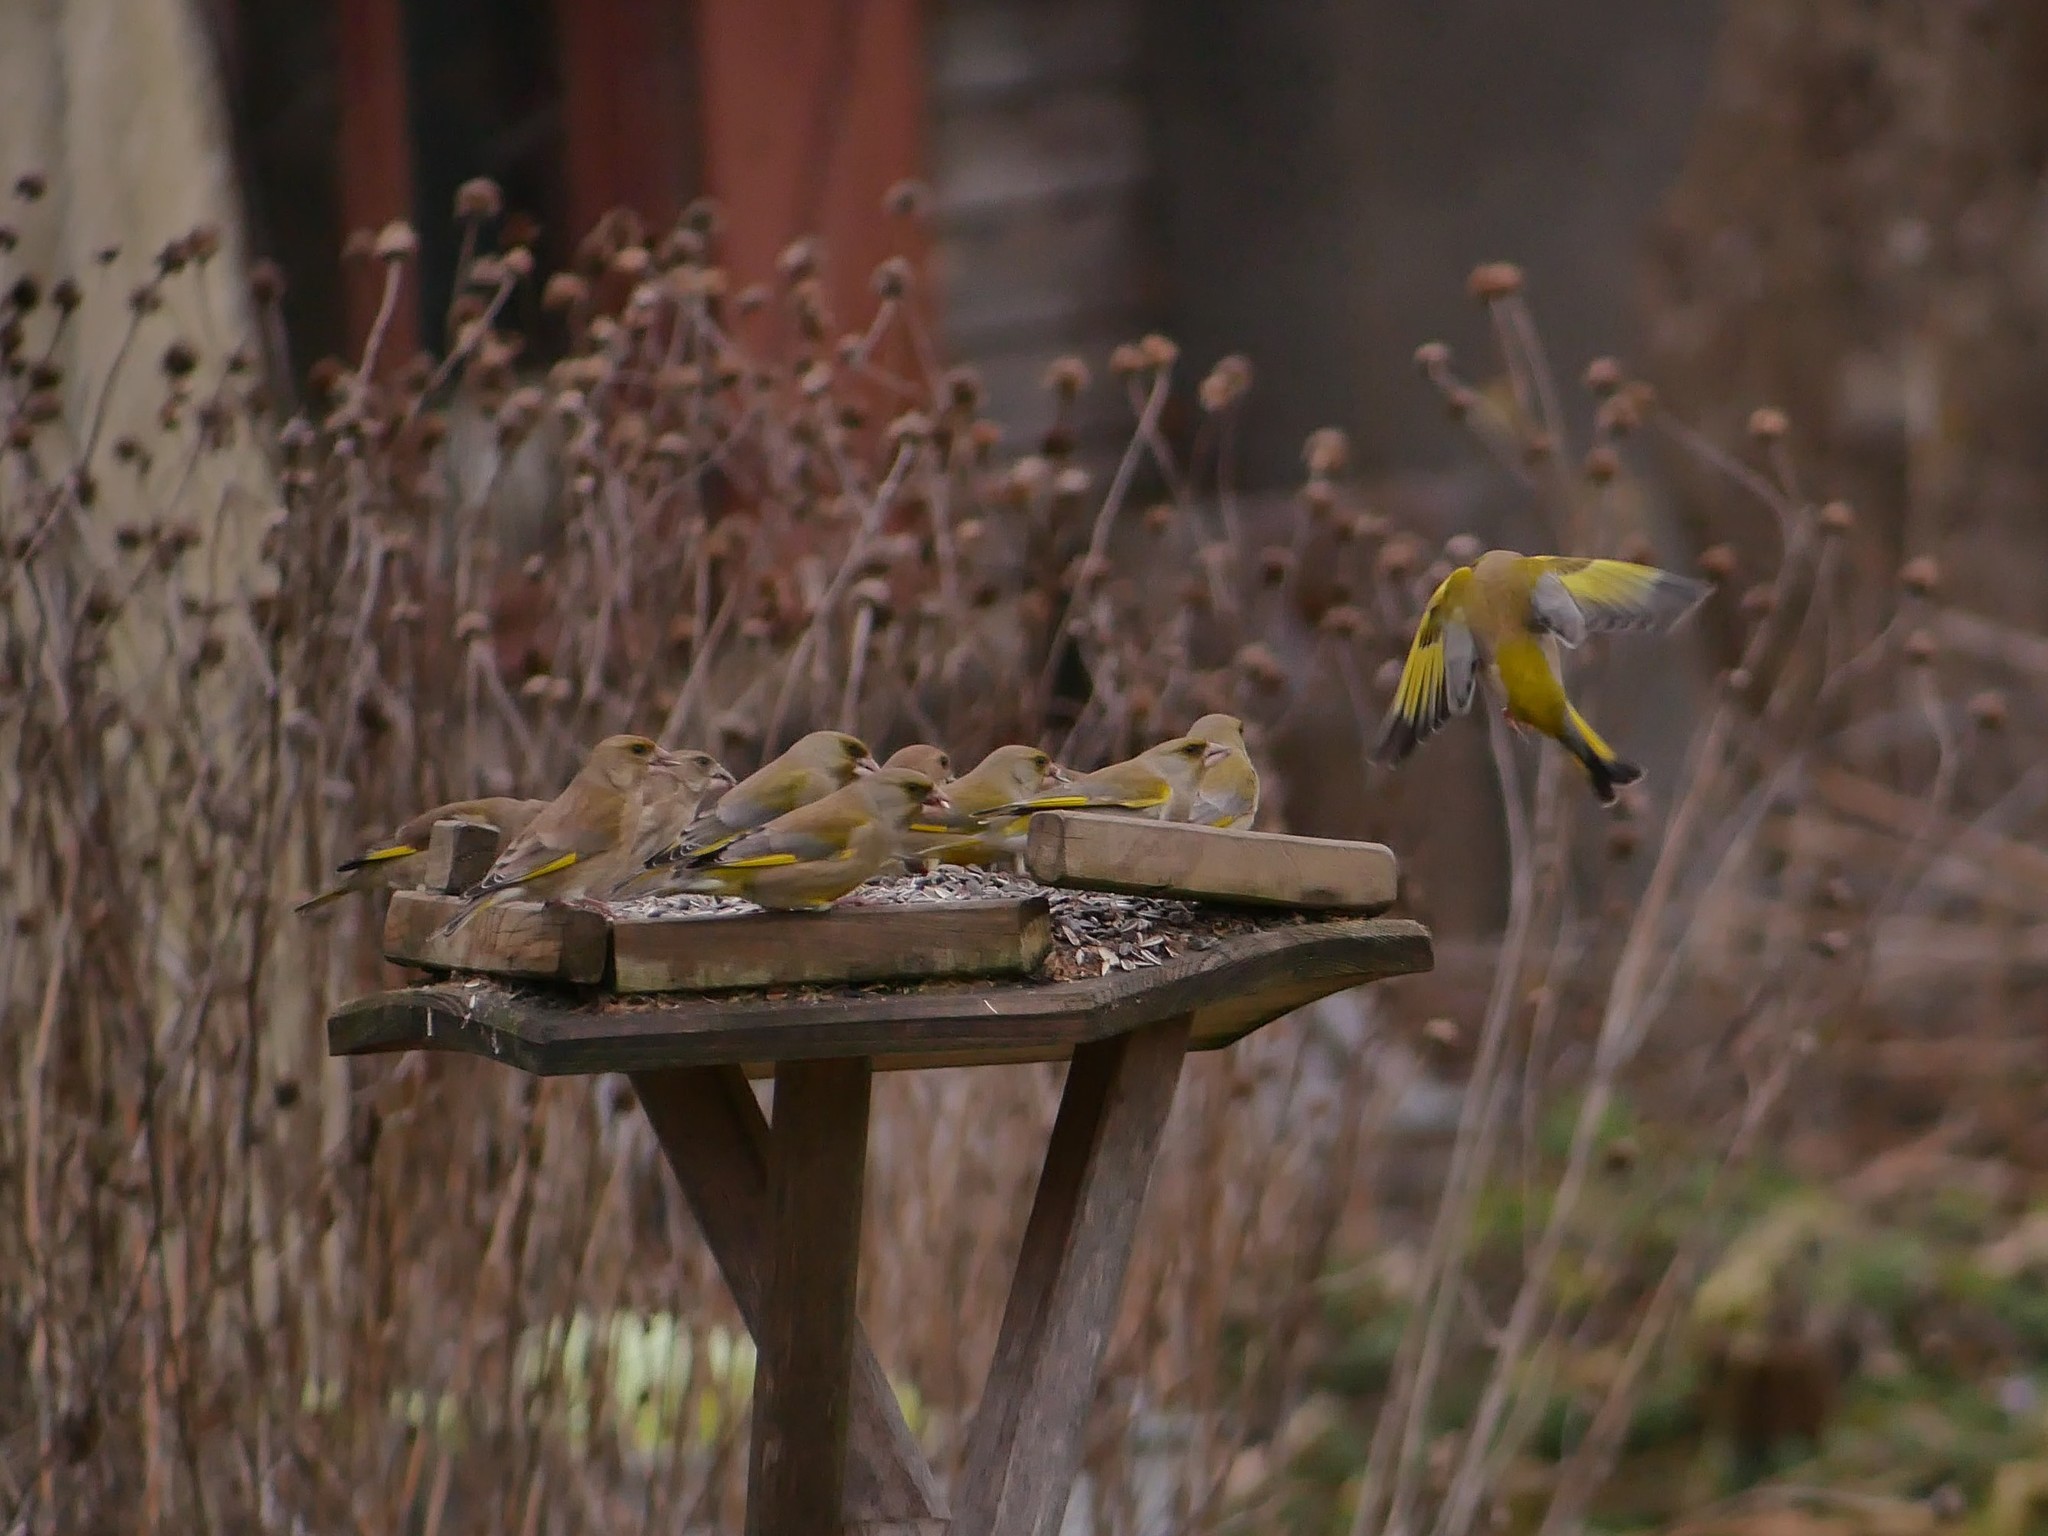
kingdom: Plantae
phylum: Tracheophyta
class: Liliopsida
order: Poales
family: Poaceae
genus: Chloris
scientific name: Chloris chloris
